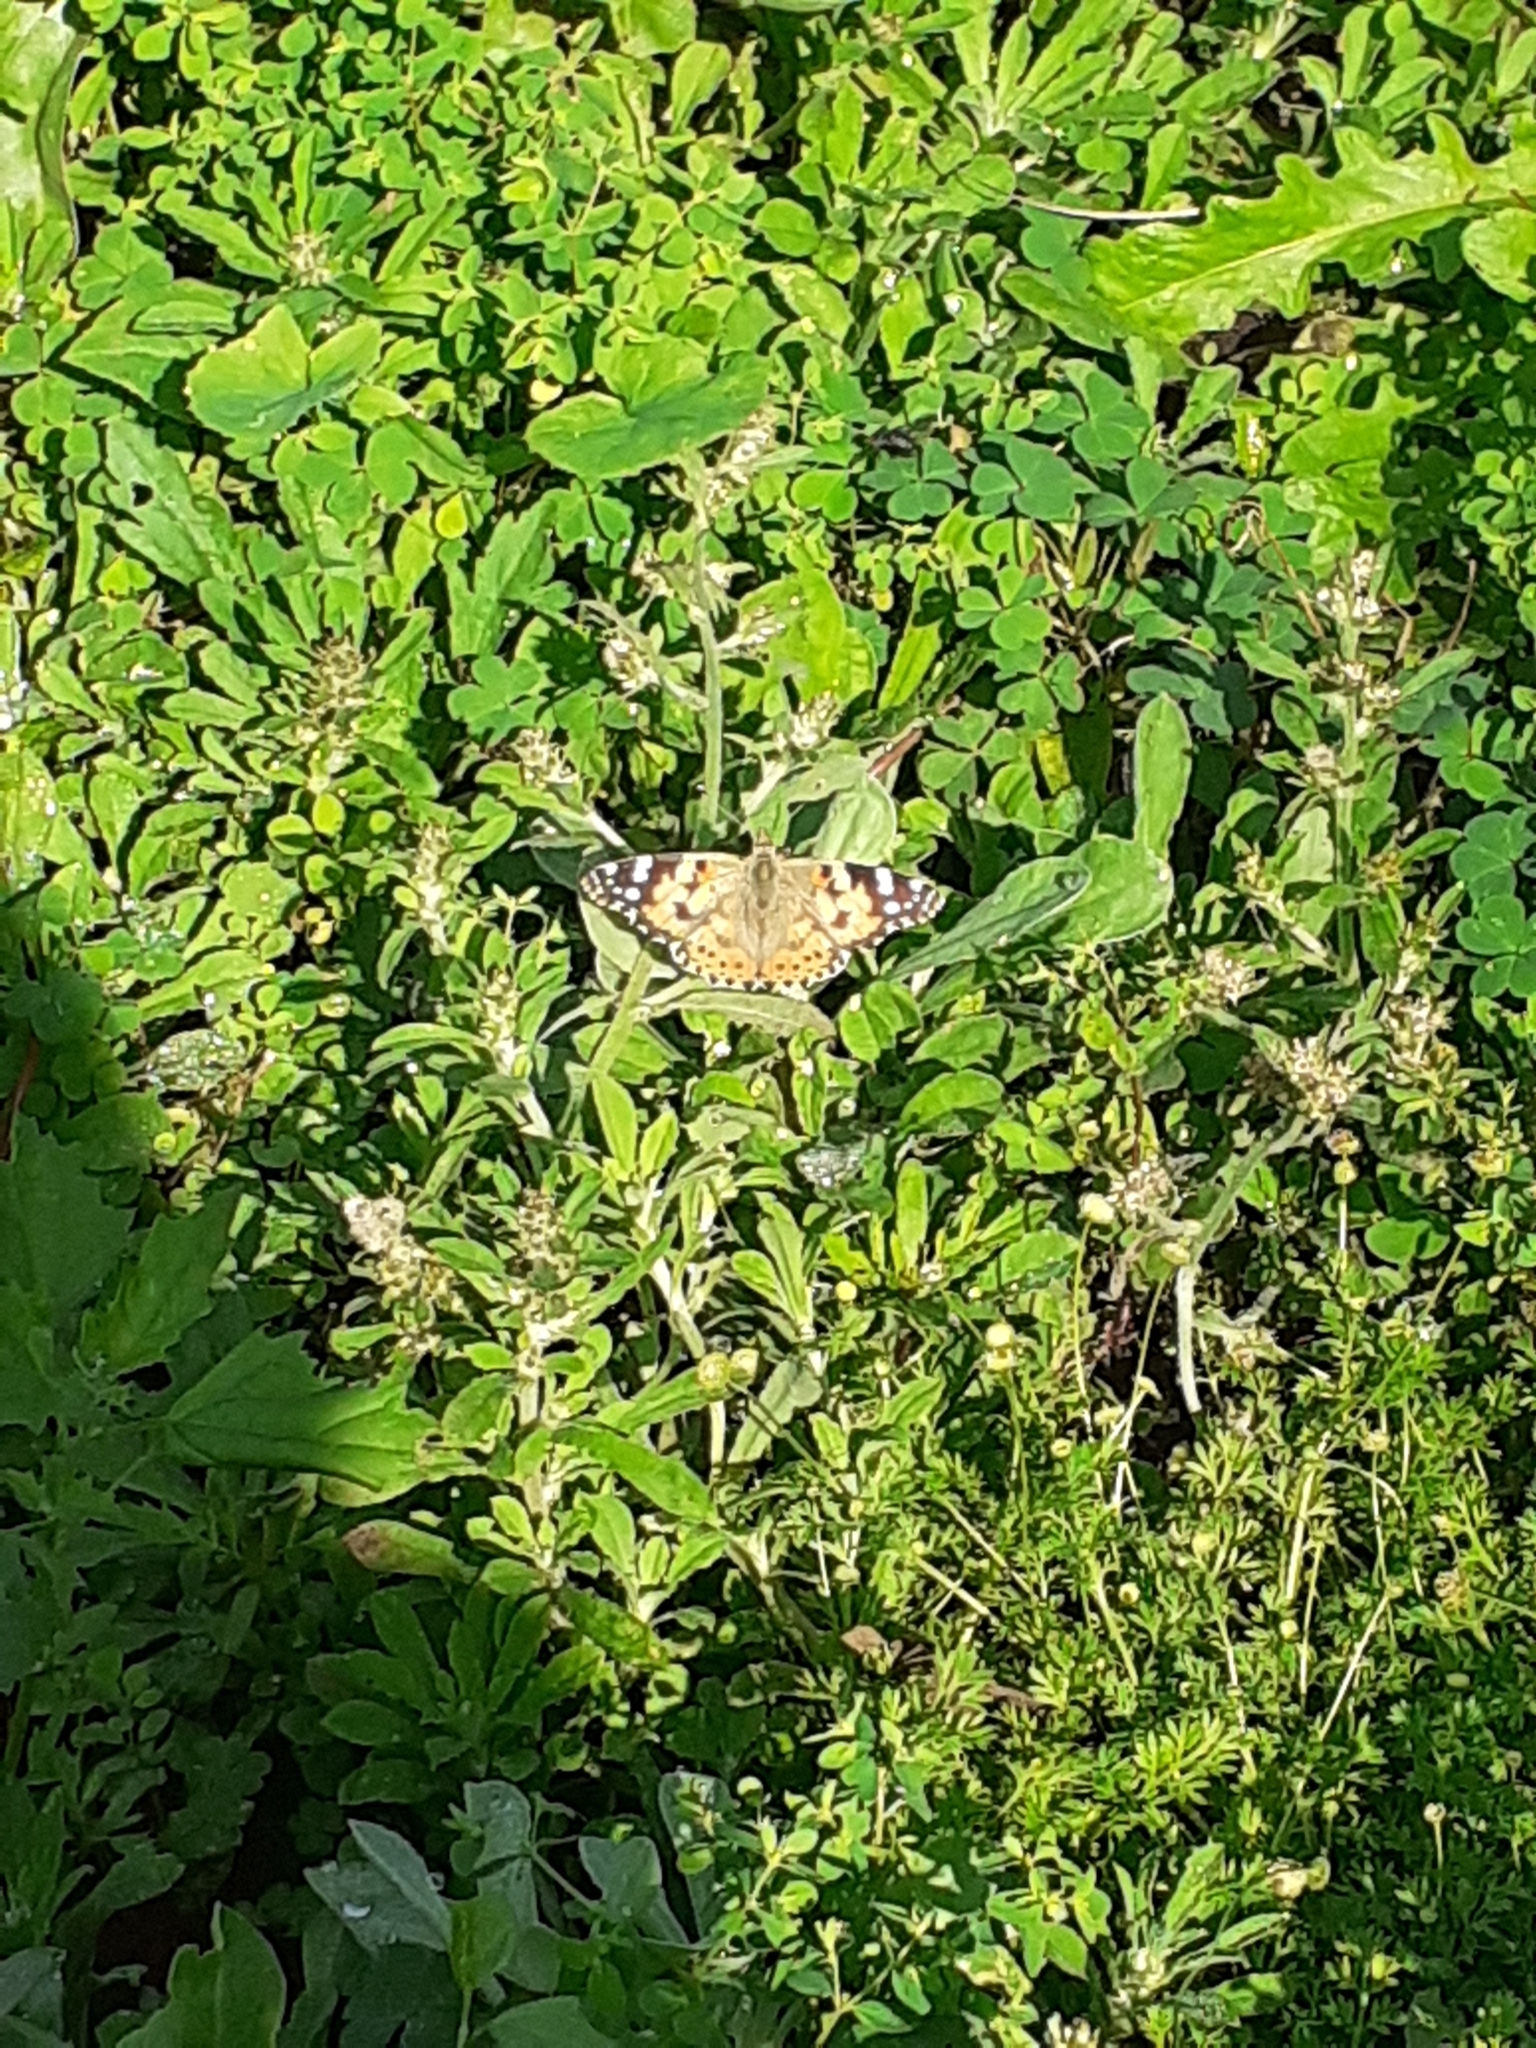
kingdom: Animalia
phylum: Arthropoda
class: Insecta
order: Lepidoptera
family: Nymphalidae
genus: Vanessa
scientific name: Vanessa cardui
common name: Painted lady
